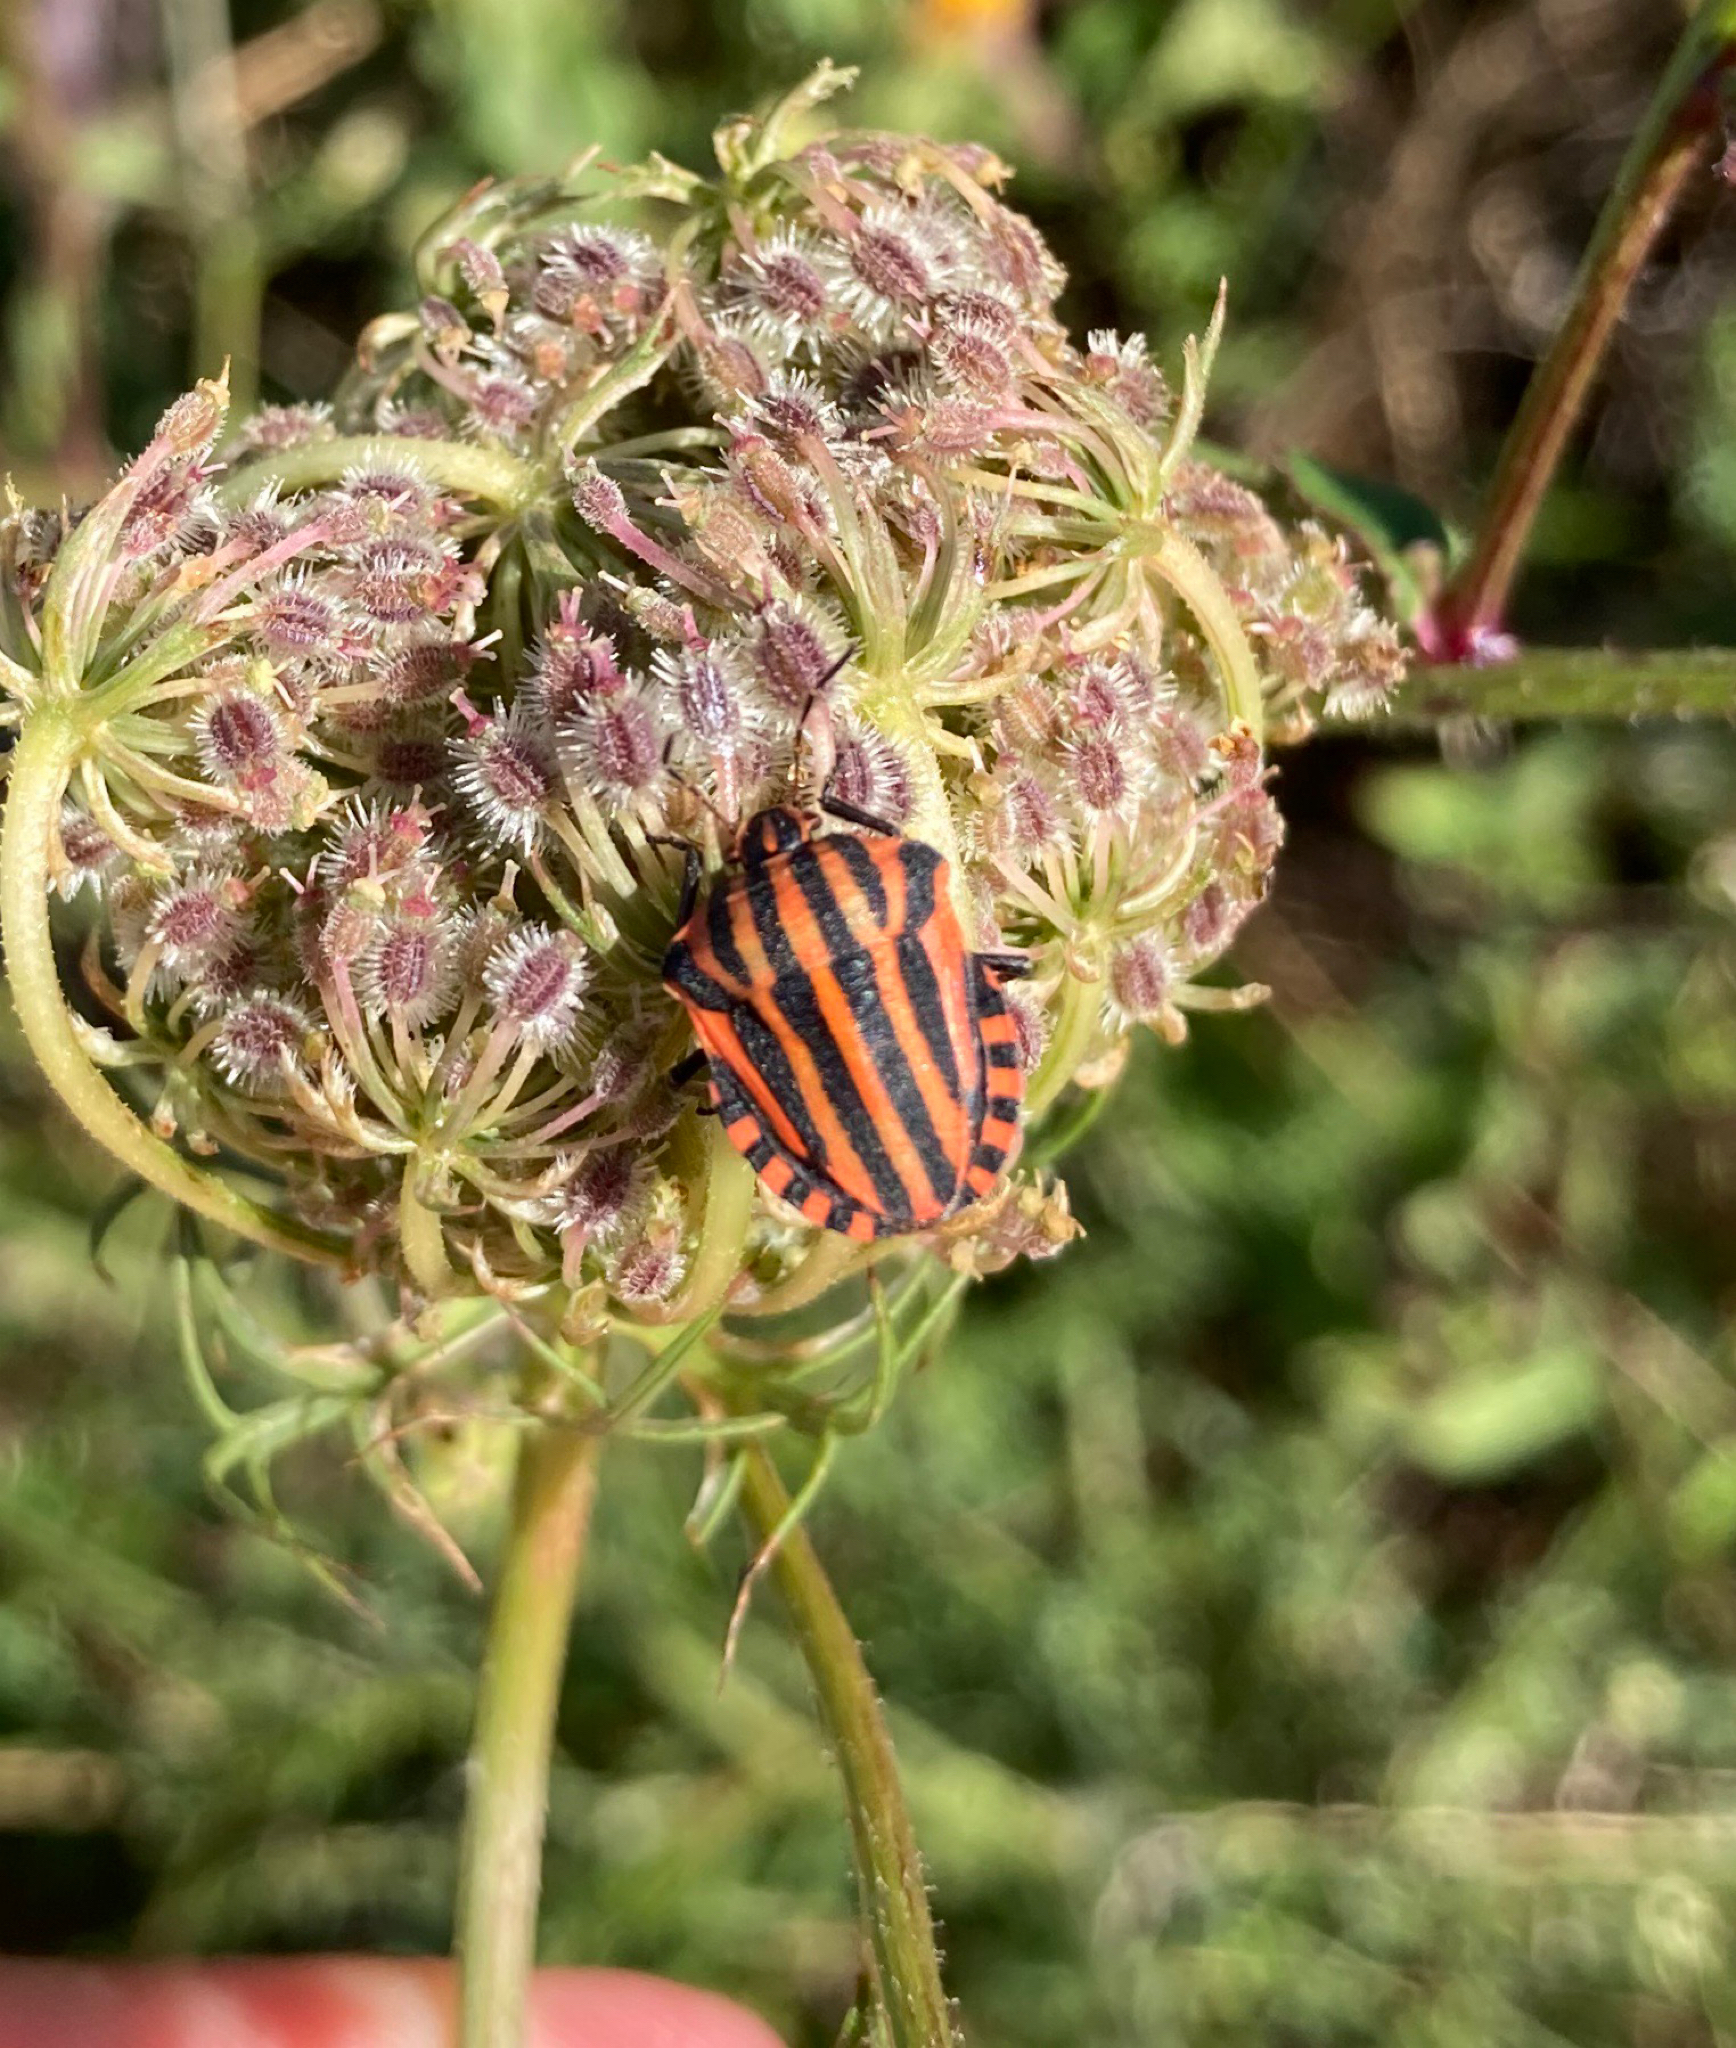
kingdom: Animalia
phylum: Arthropoda
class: Insecta
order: Hemiptera
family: Pentatomidae
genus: Graphosoma
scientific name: Graphosoma italicum
